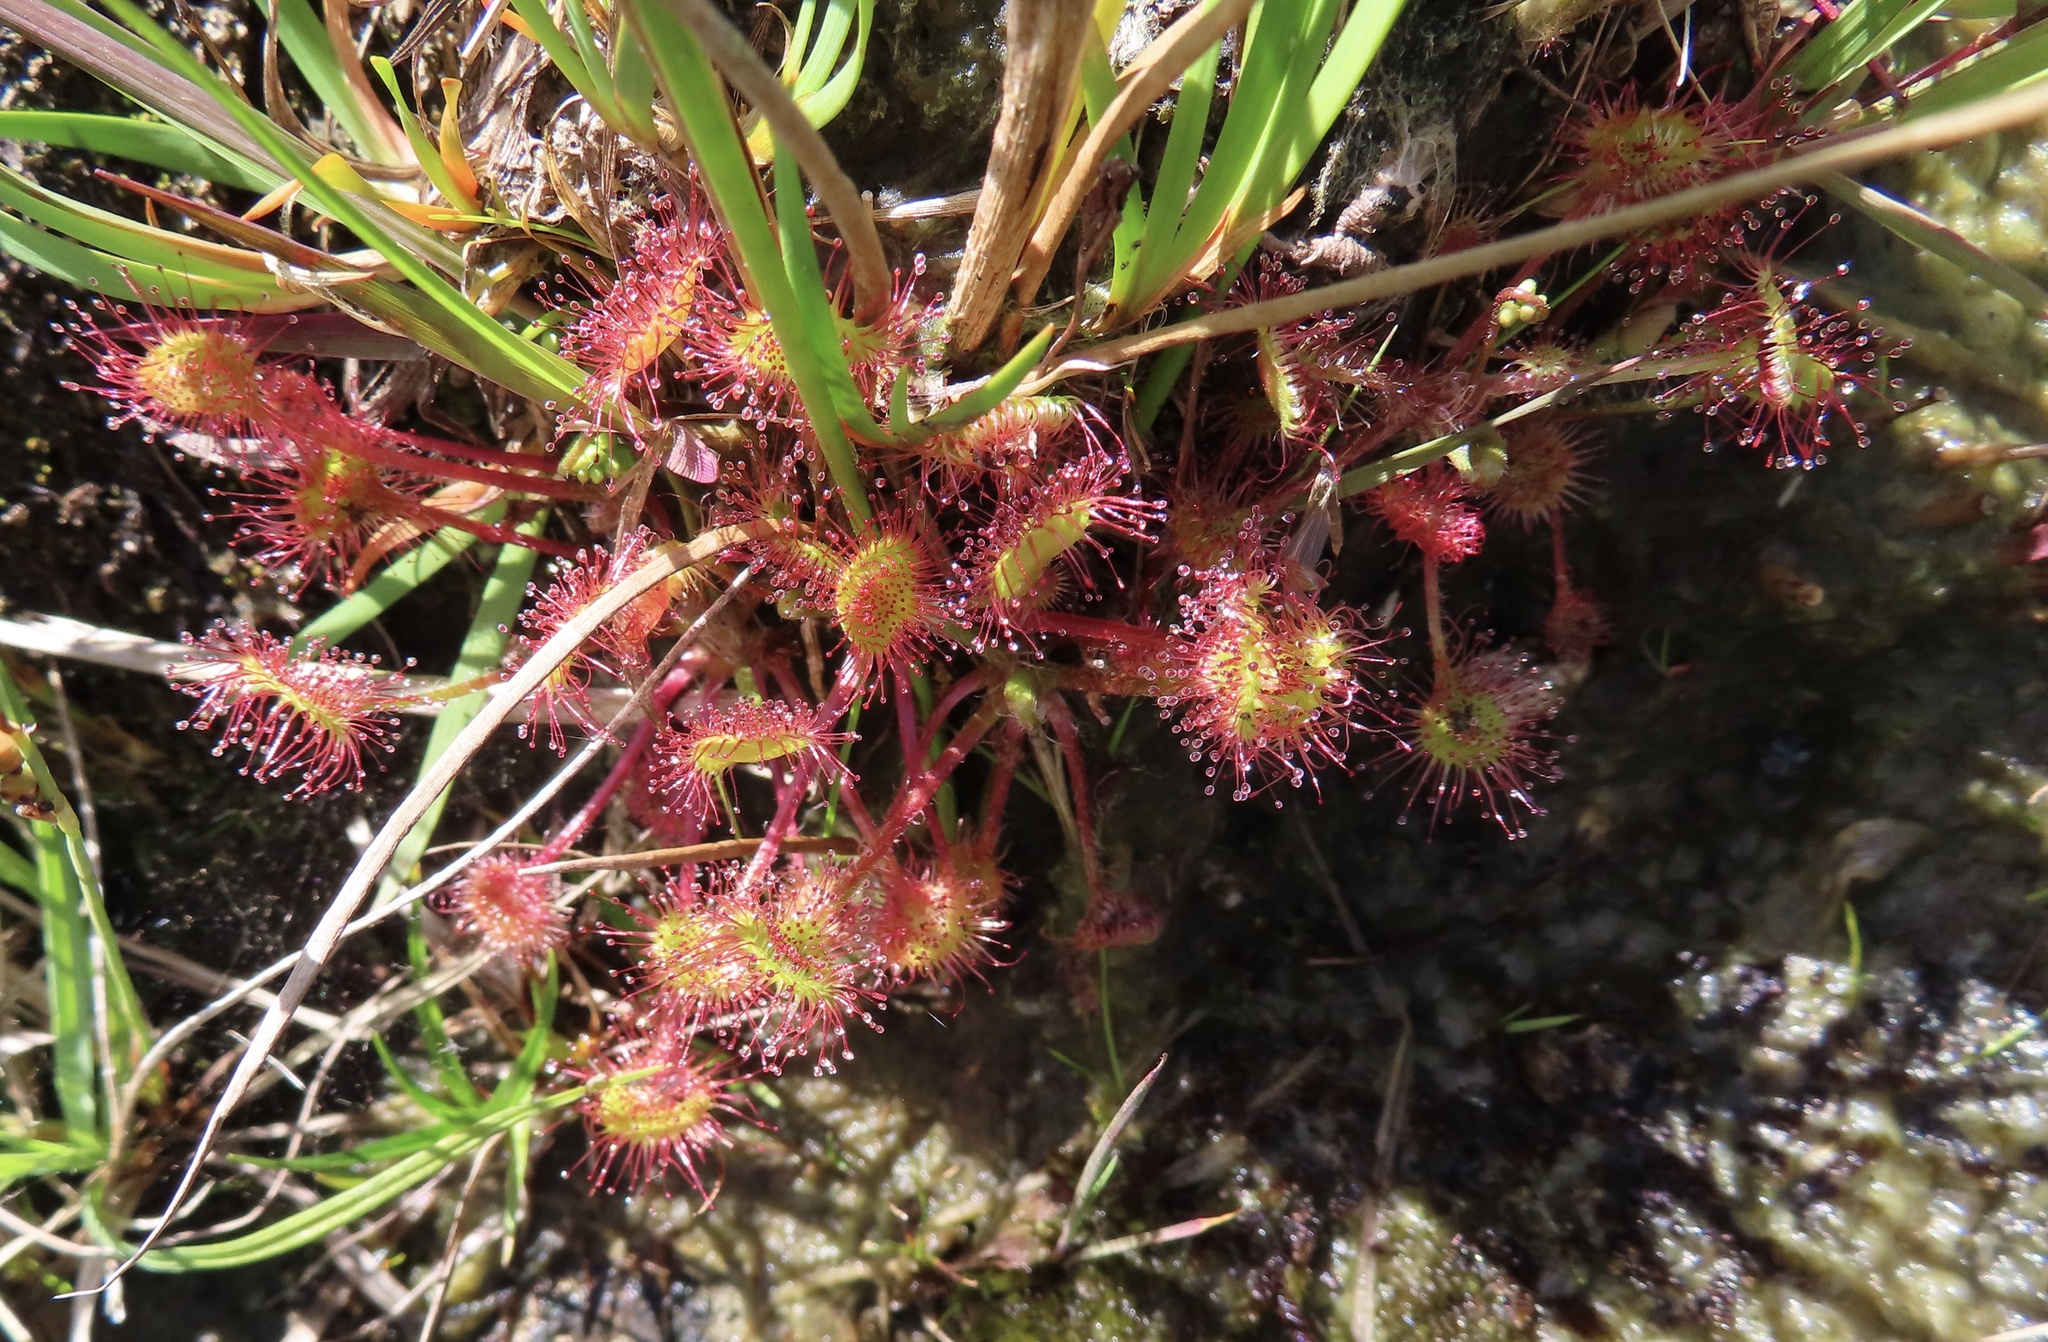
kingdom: Plantae
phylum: Tracheophyta
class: Magnoliopsida
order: Caryophyllales
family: Droseraceae
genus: Drosera
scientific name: Drosera rotundifolia
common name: Round-leaved sundew
